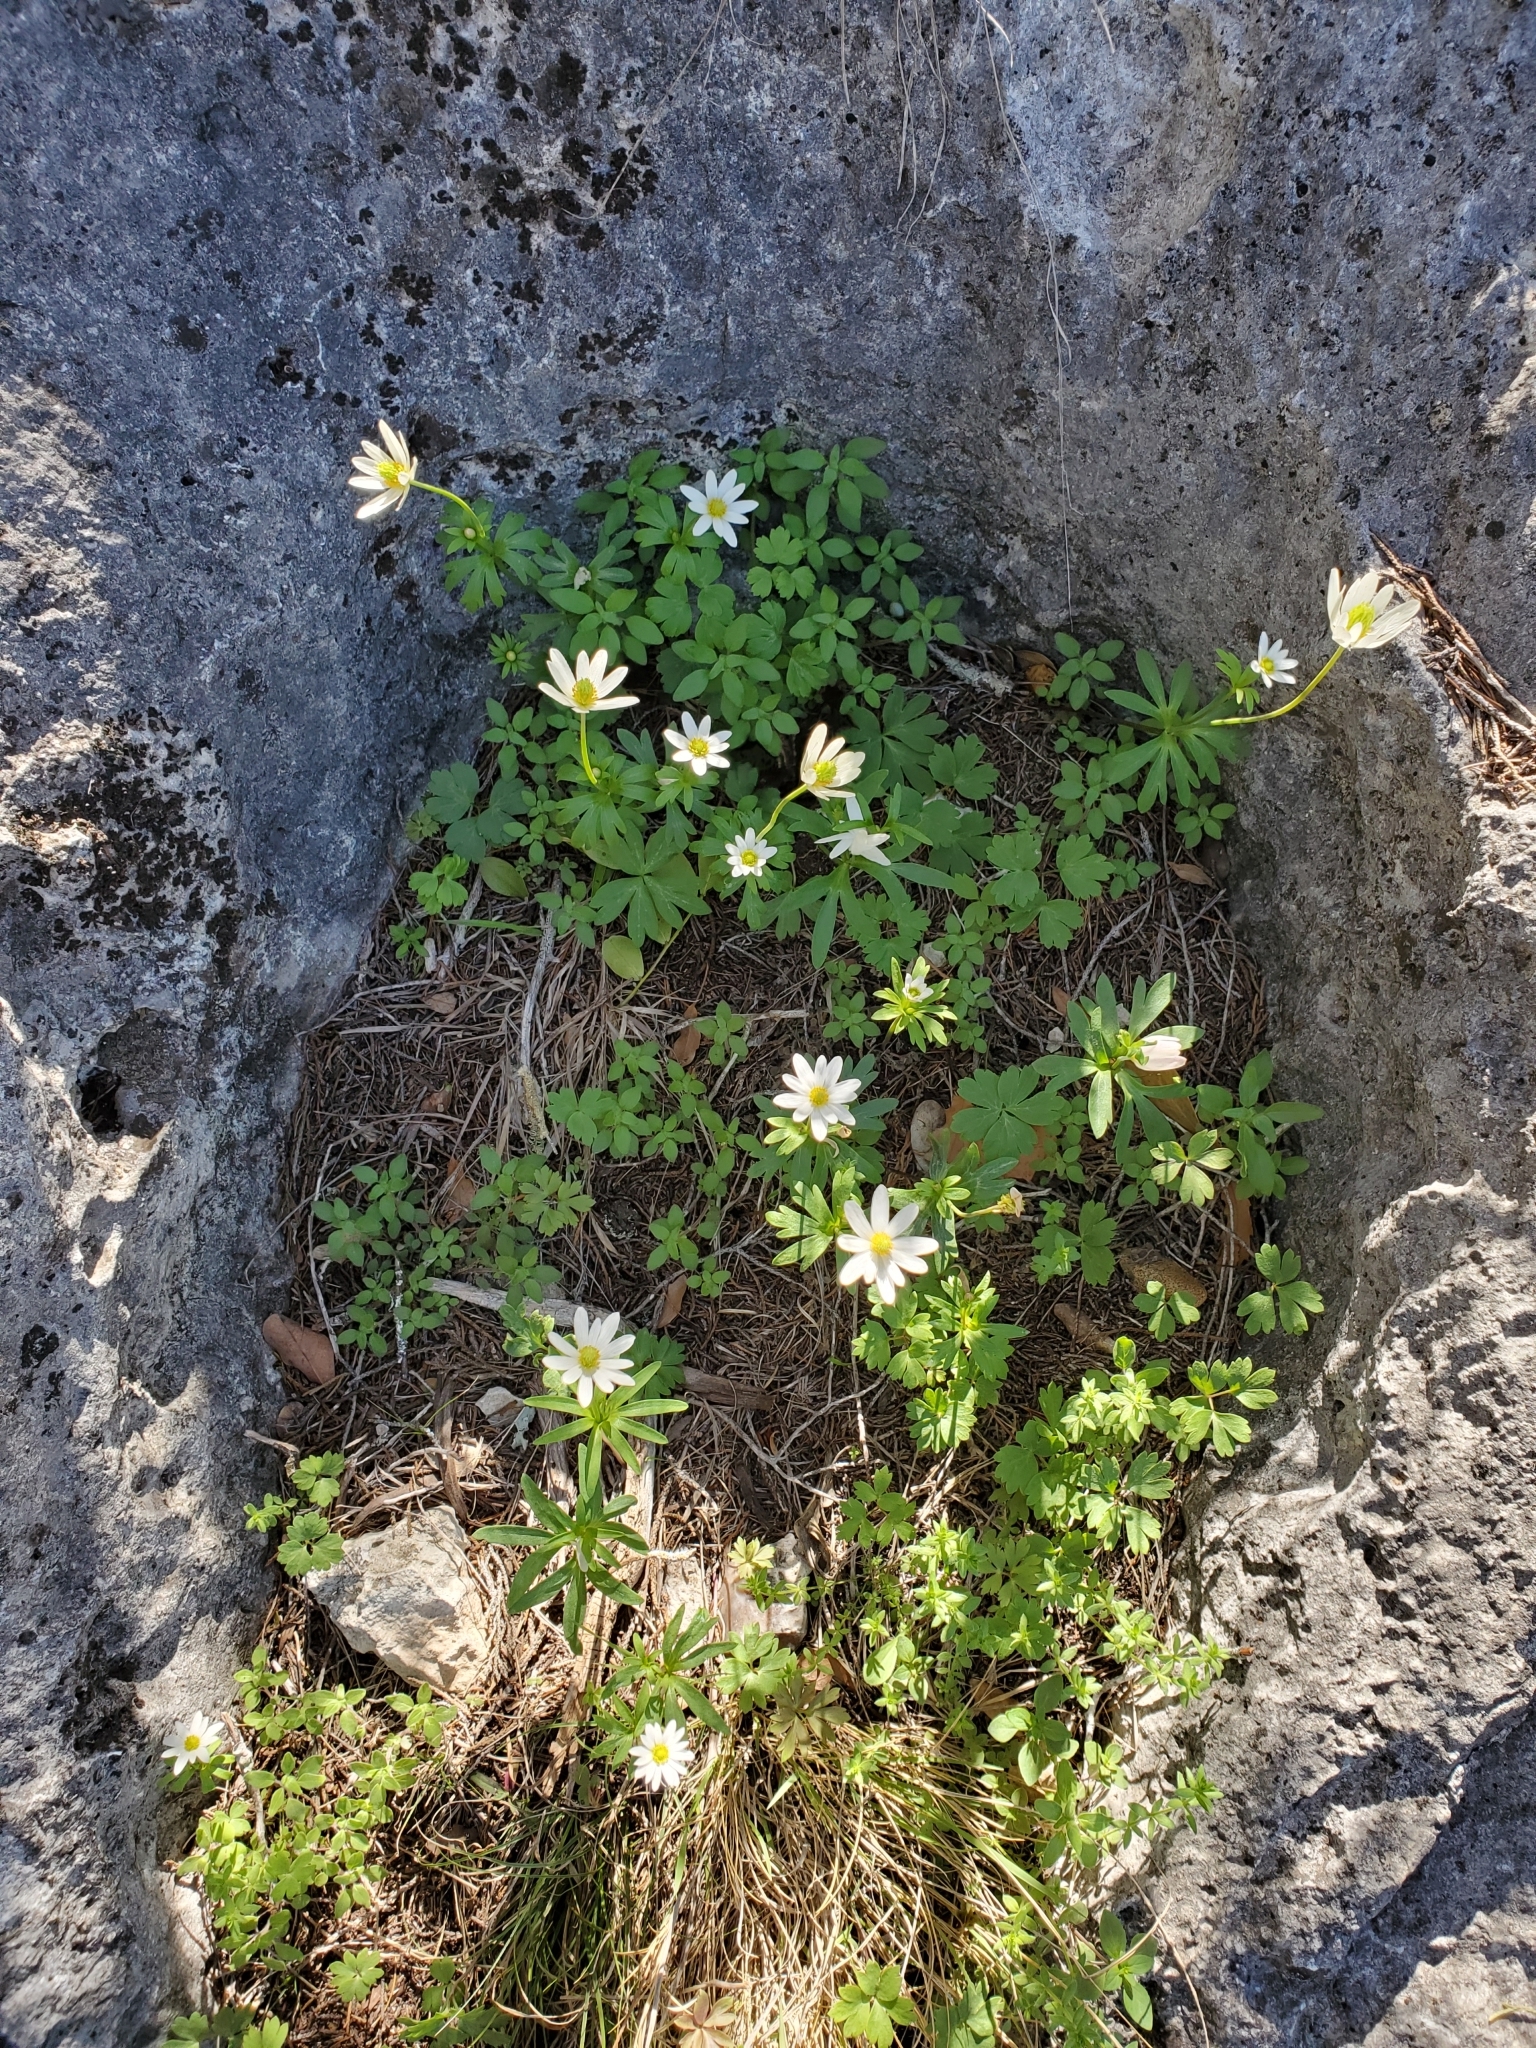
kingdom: Plantae
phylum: Tracheophyta
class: Magnoliopsida
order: Ranunculales
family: Ranunculaceae
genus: Anemone
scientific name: Anemone edwardsiana
